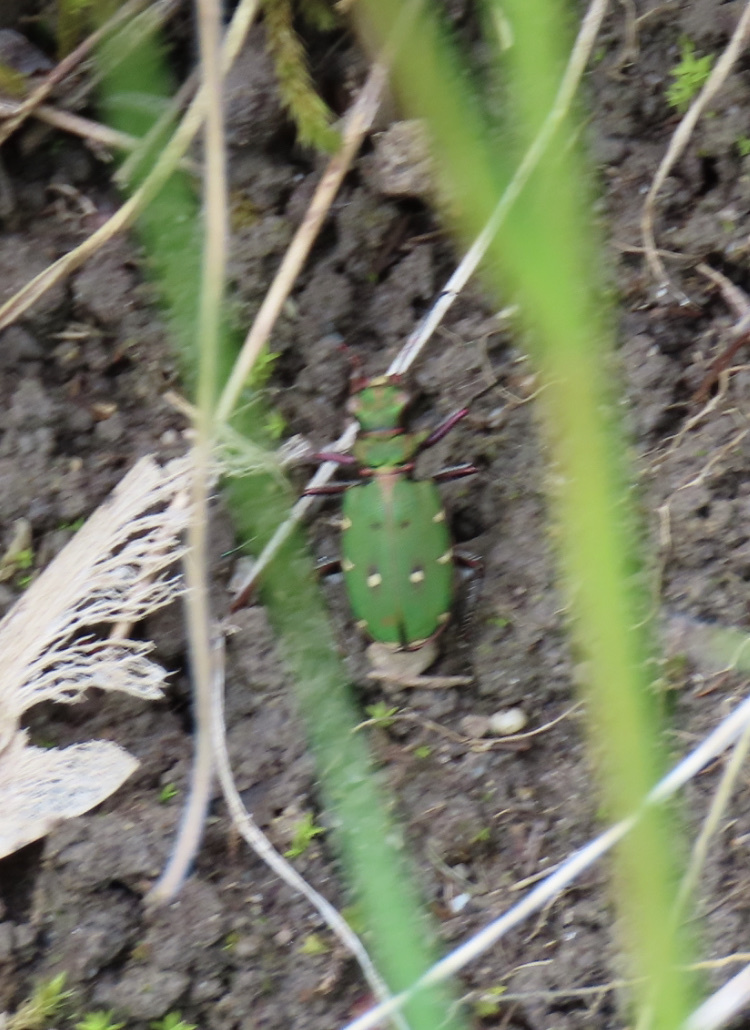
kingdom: Animalia
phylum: Arthropoda
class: Insecta
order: Coleoptera
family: Carabidae
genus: Cicindela
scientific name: Cicindela campestris
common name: Common tiger beetle
